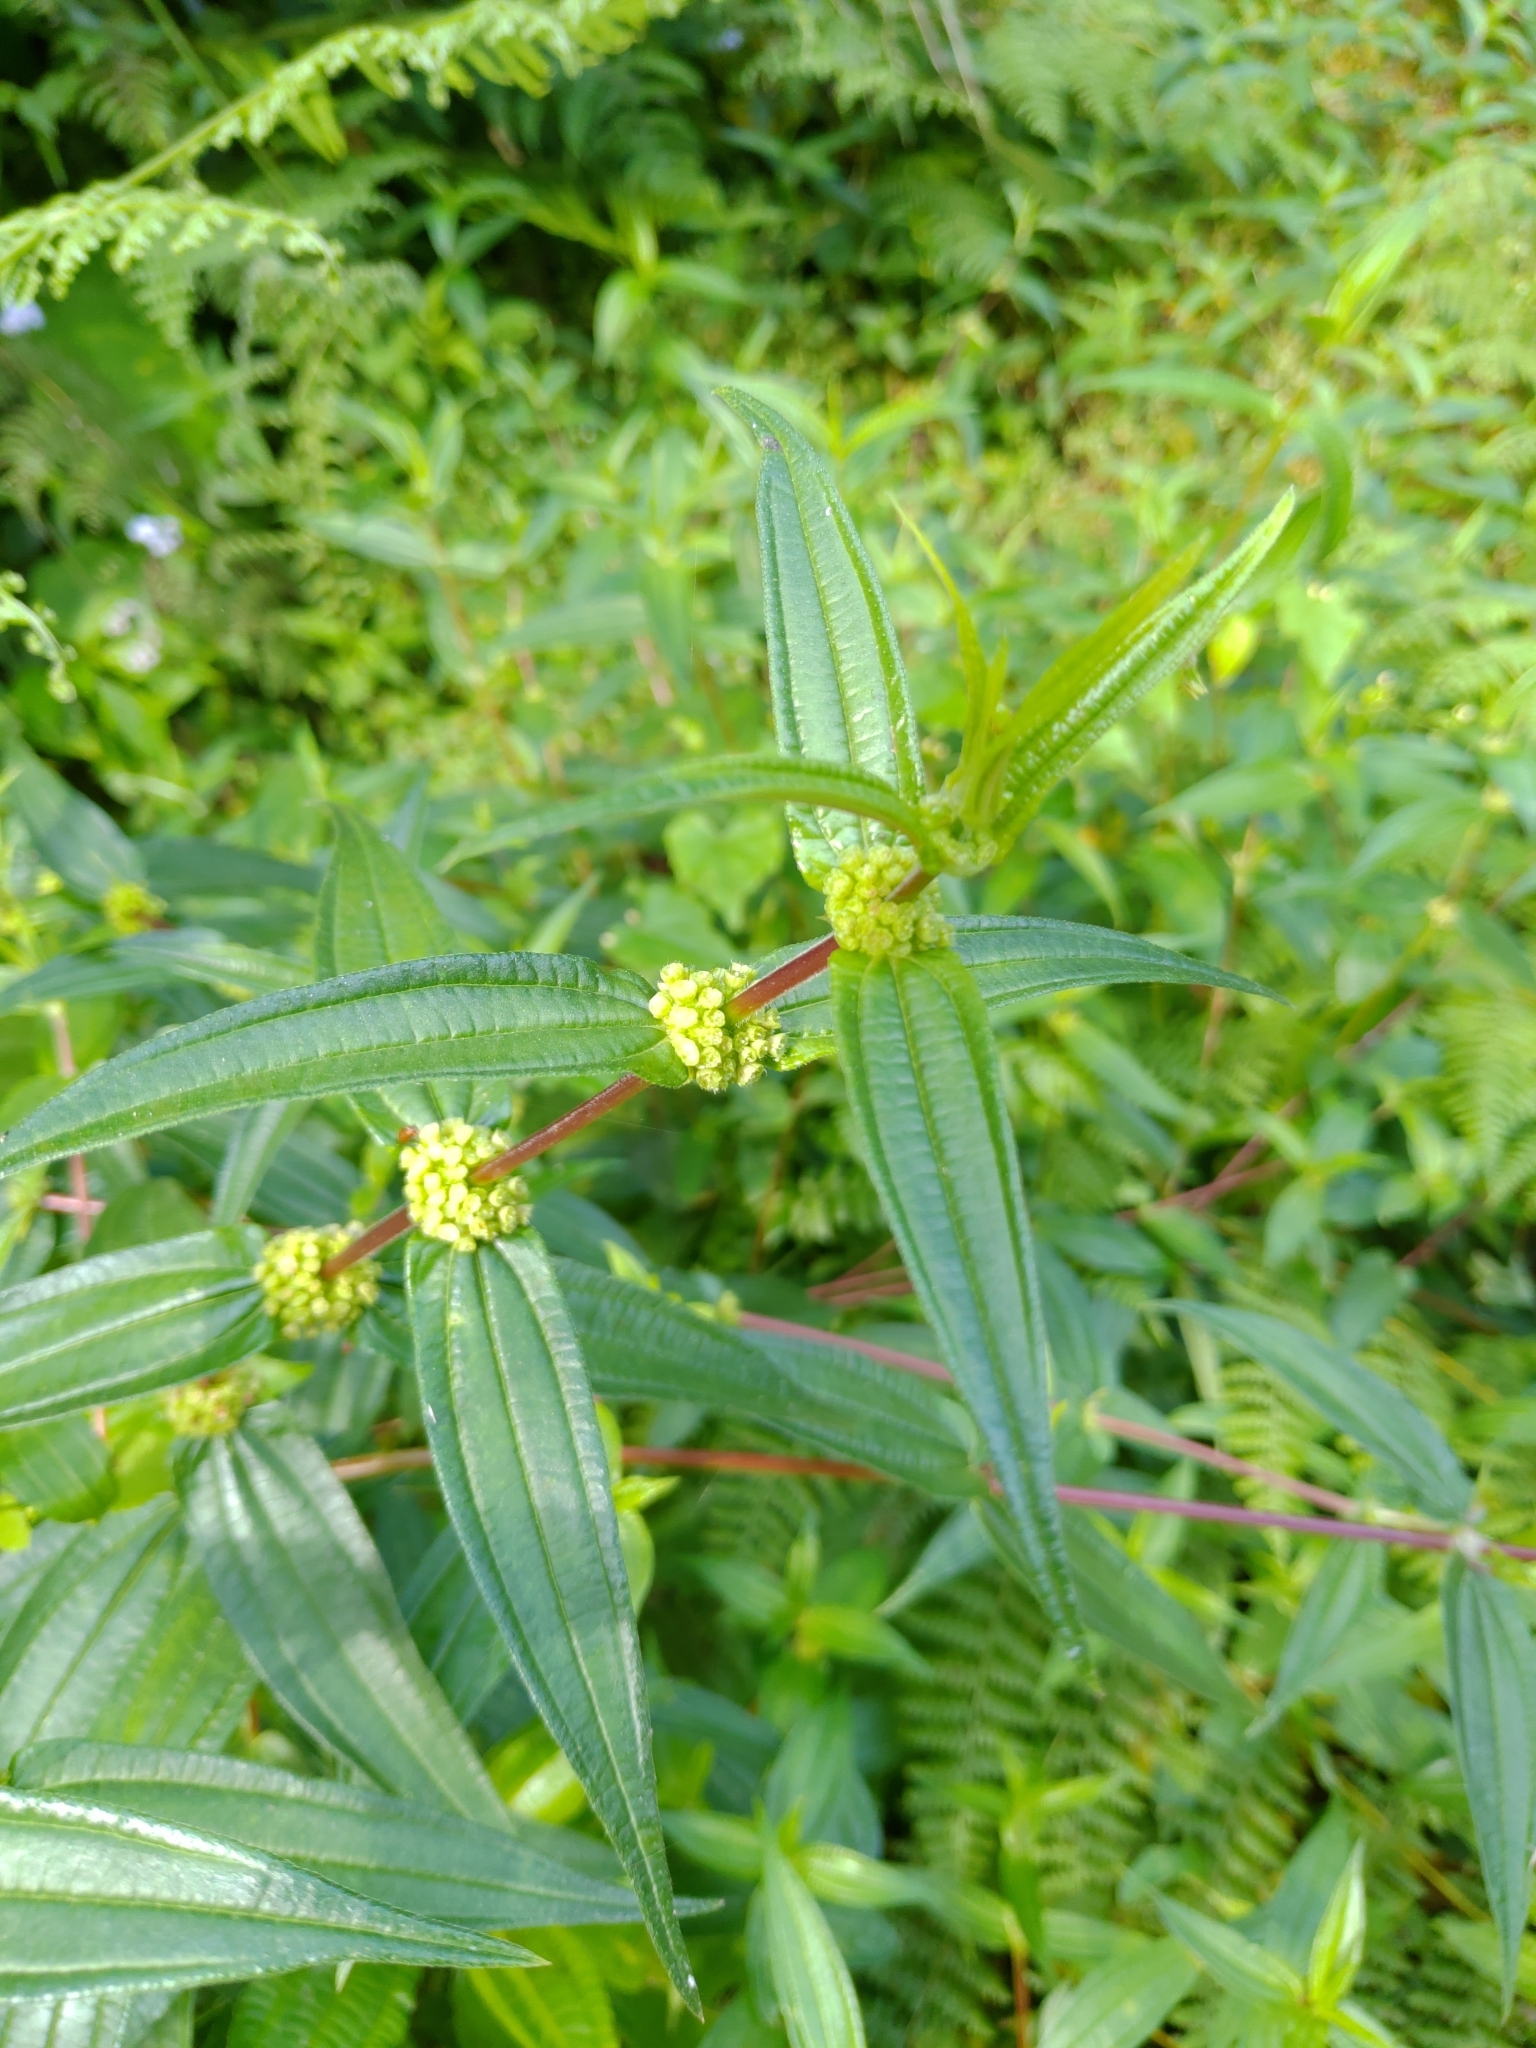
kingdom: Plantae
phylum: Tracheophyta
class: Magnoliopsida
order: Rosales
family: Urticaceae
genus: Gonostegia
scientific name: Gonostegia triandra
